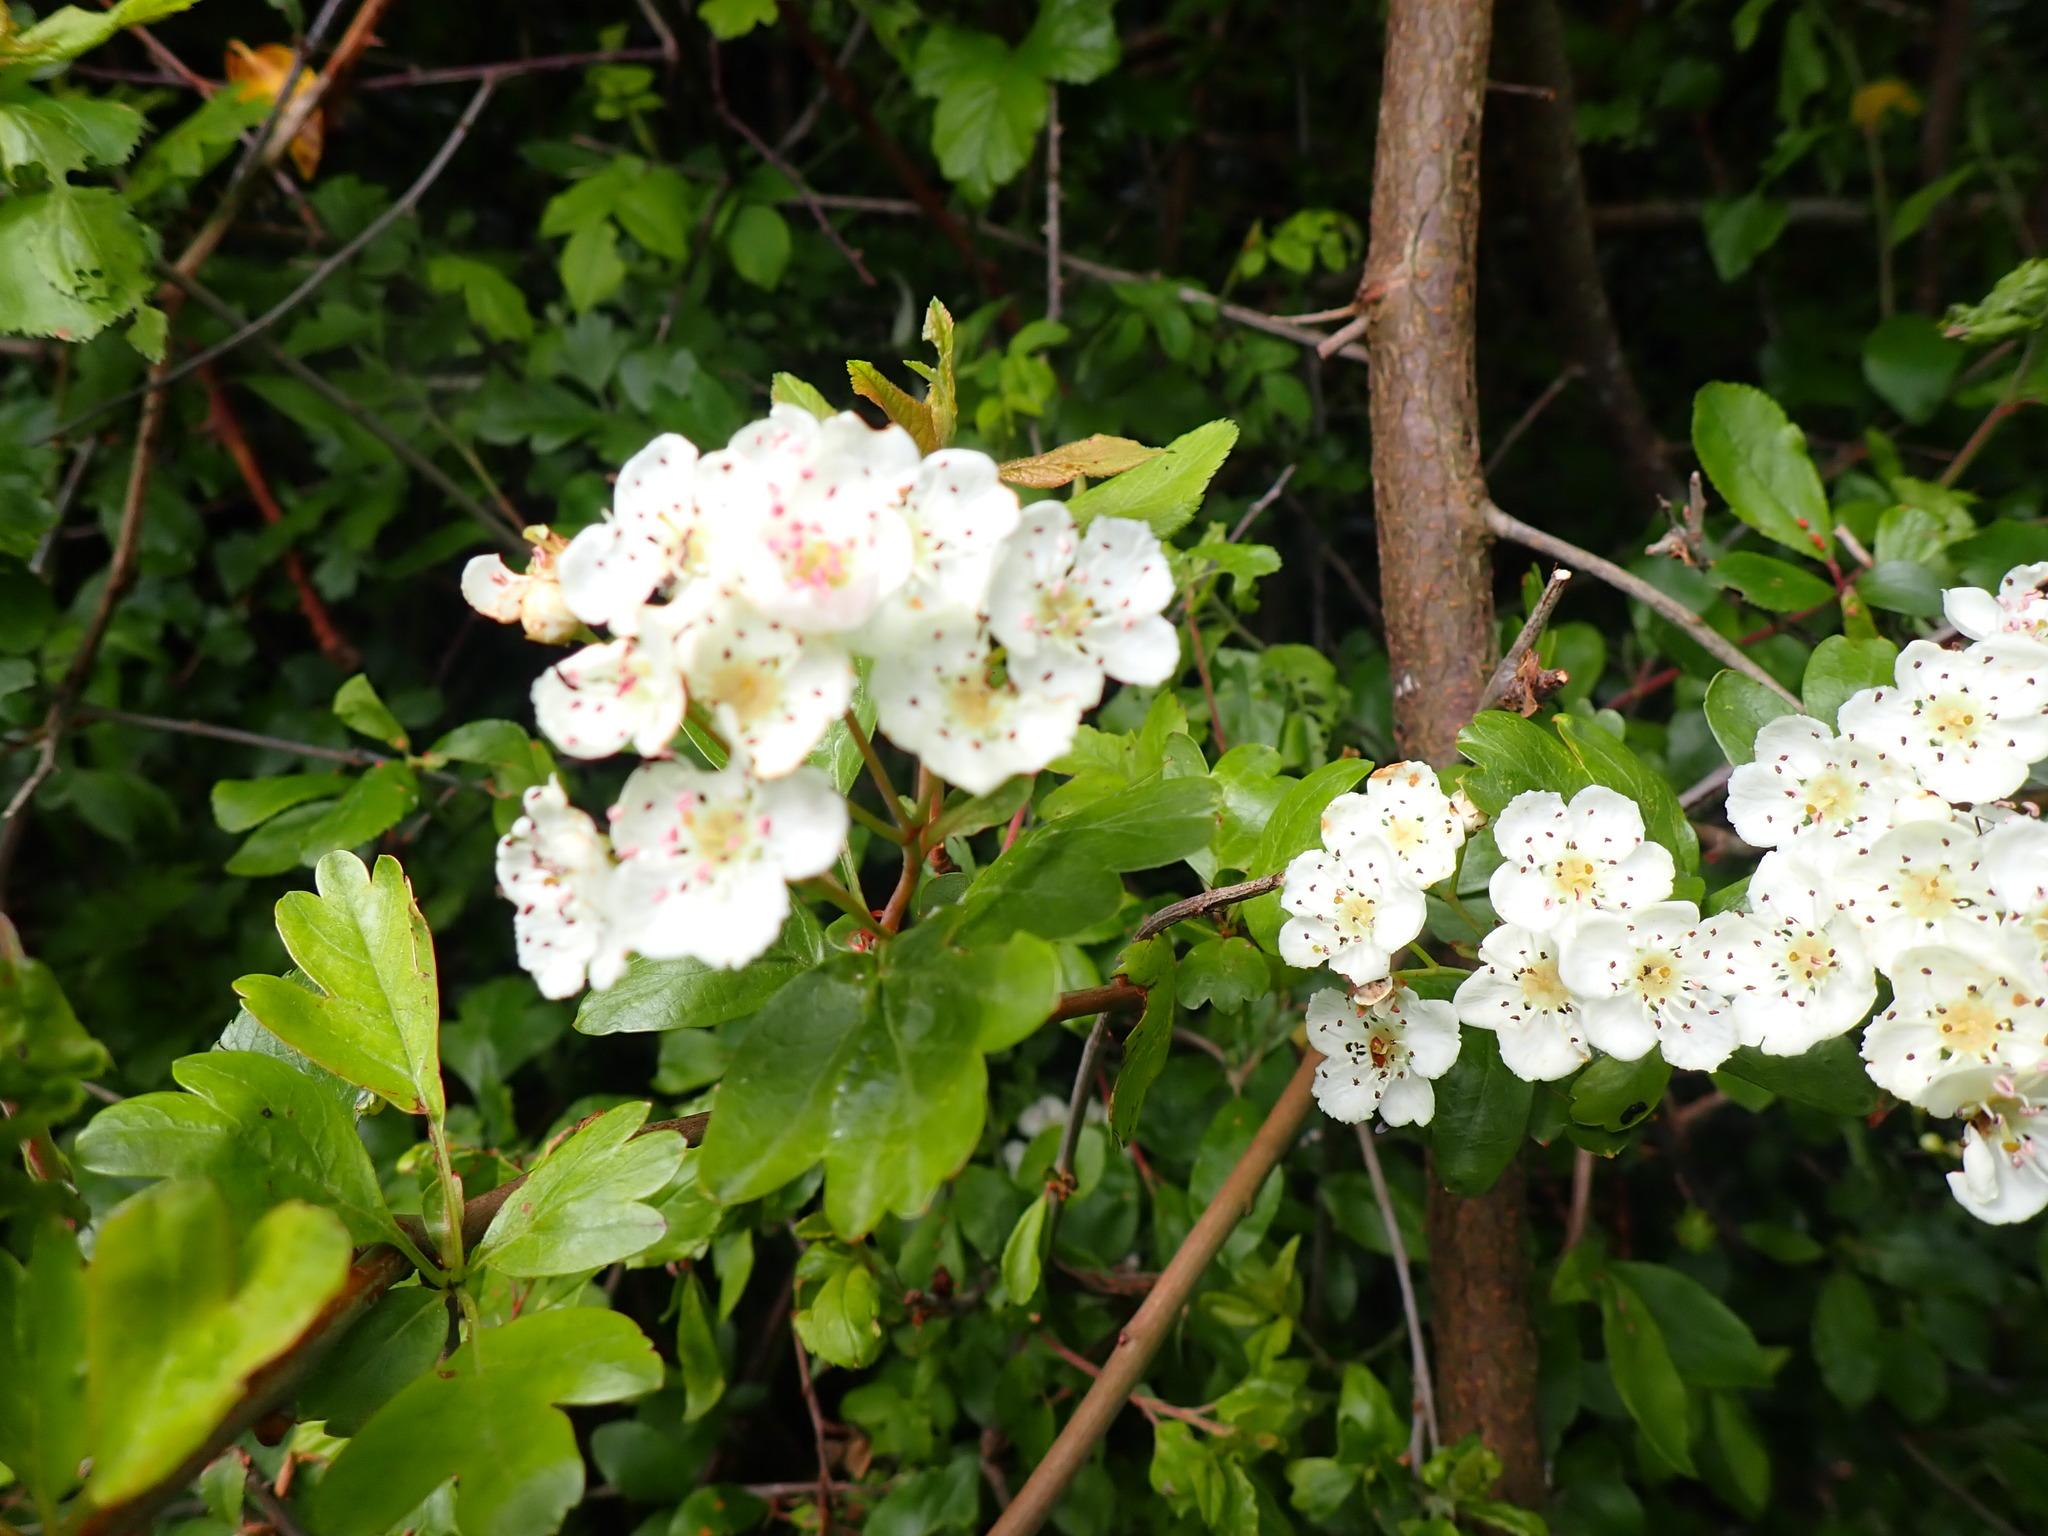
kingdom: Plantae
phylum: Tracheophyta
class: Magnoliopsida
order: Rosales
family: Rosaceae
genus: Crataegus
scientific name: Crataegus monogyna
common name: Hawthorn
